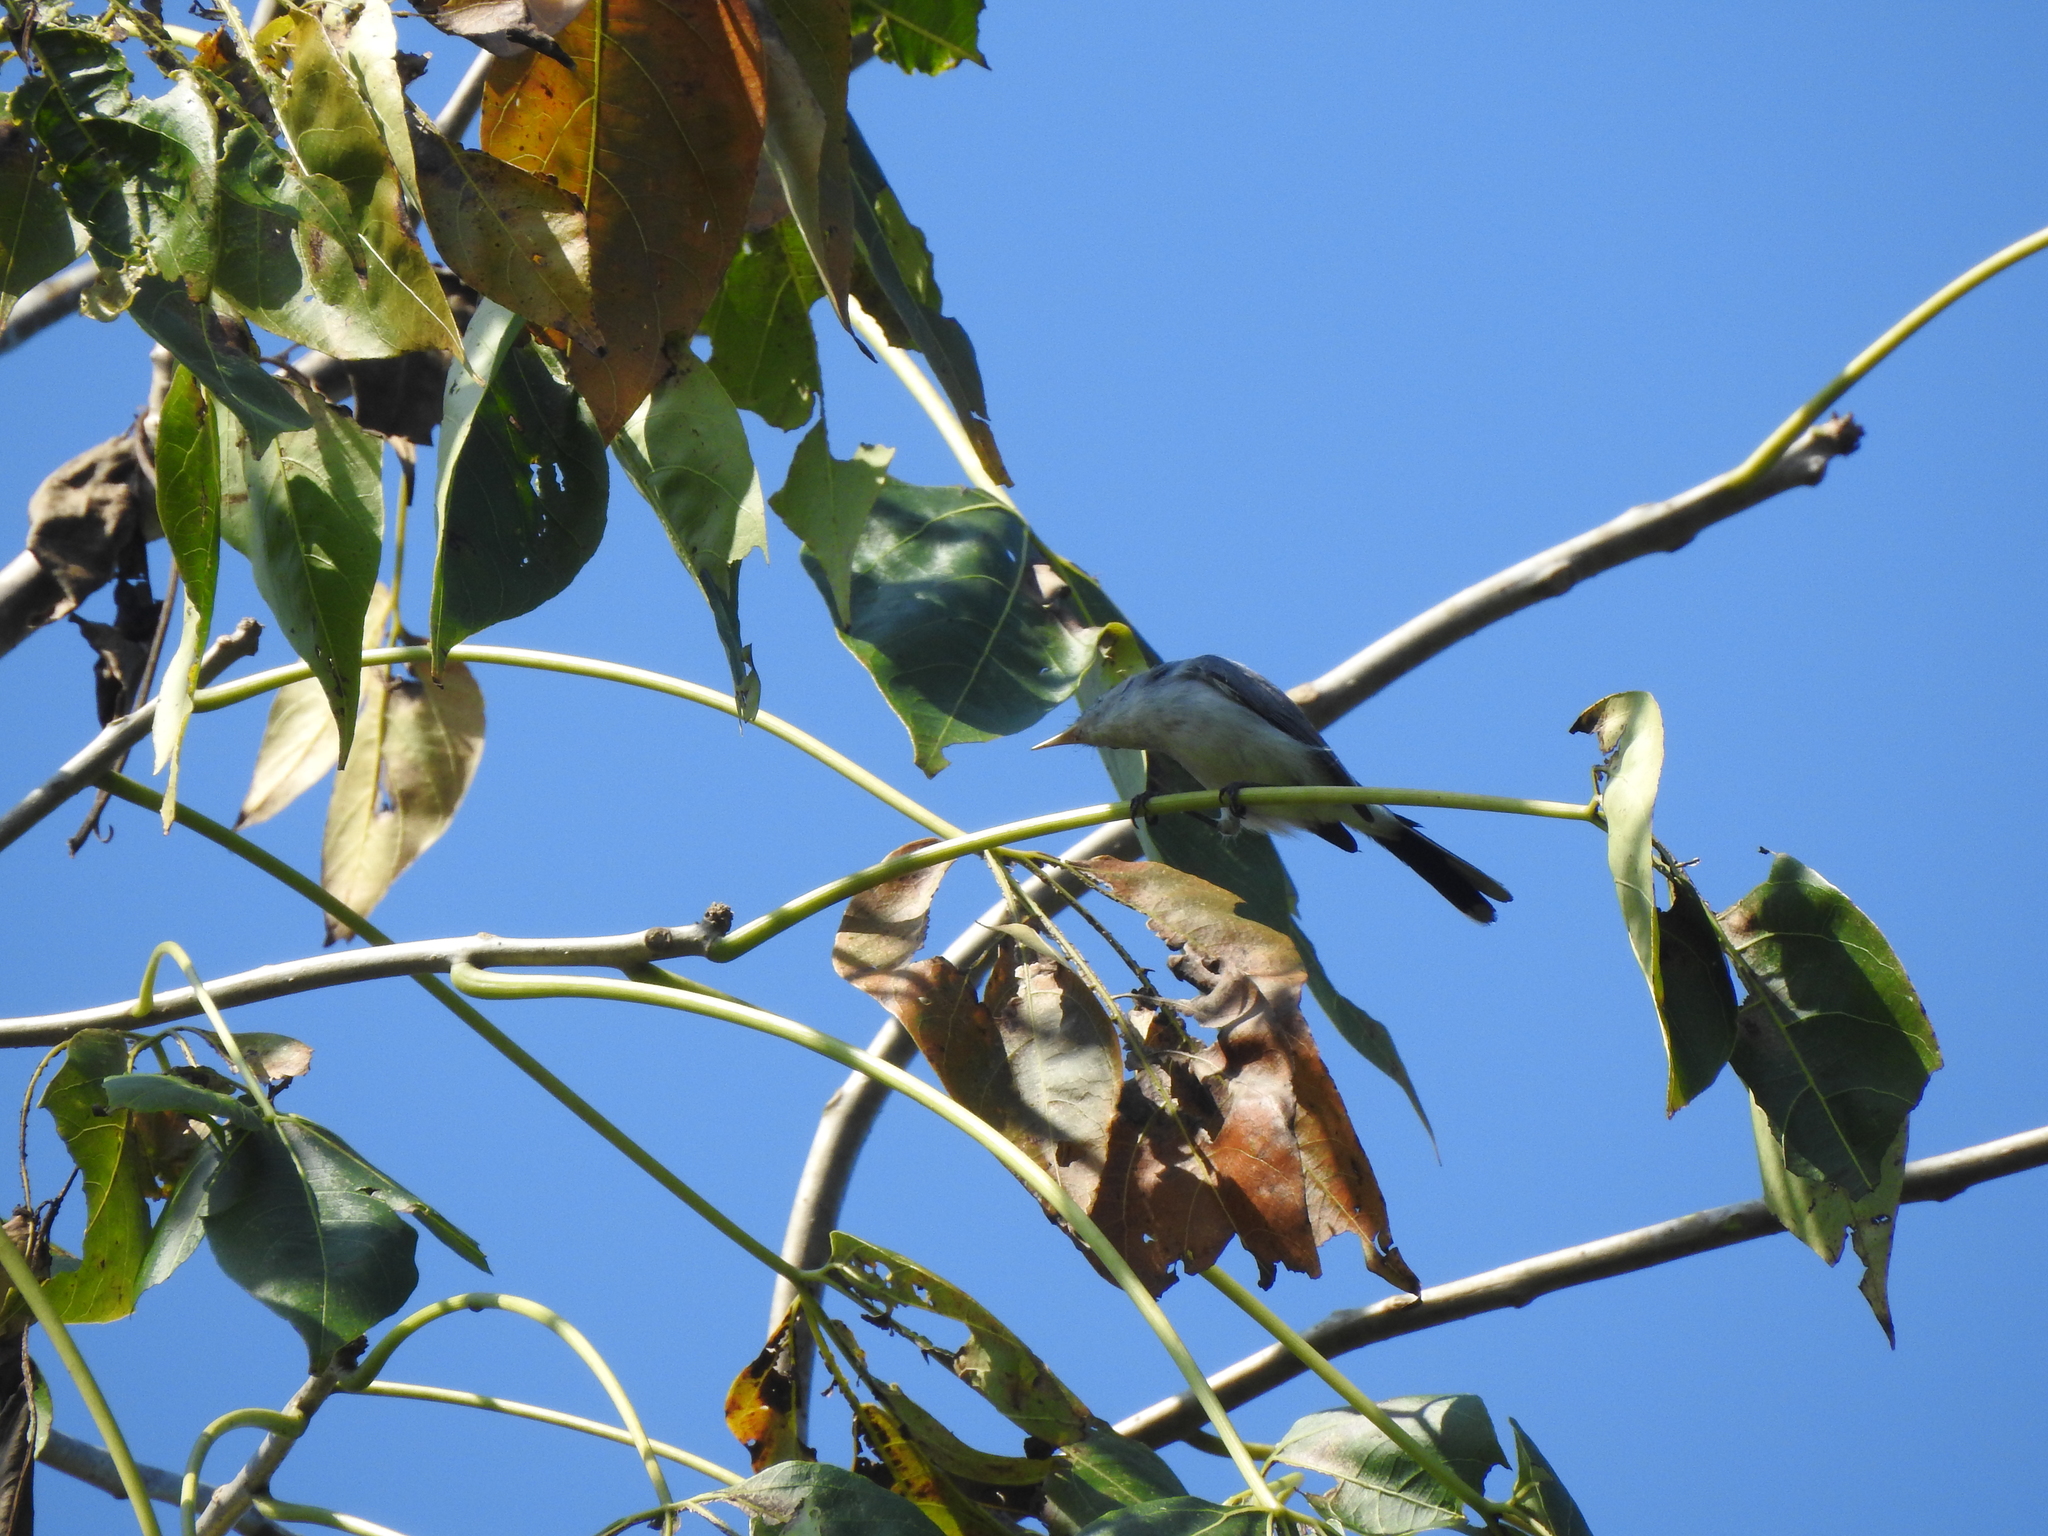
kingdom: Animalia
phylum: Chordata
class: Aves
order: Passeriformes
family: Polioptilidae
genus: Polioptila
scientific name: Polioptila caerulea
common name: Blue-gray gnatcatcher
